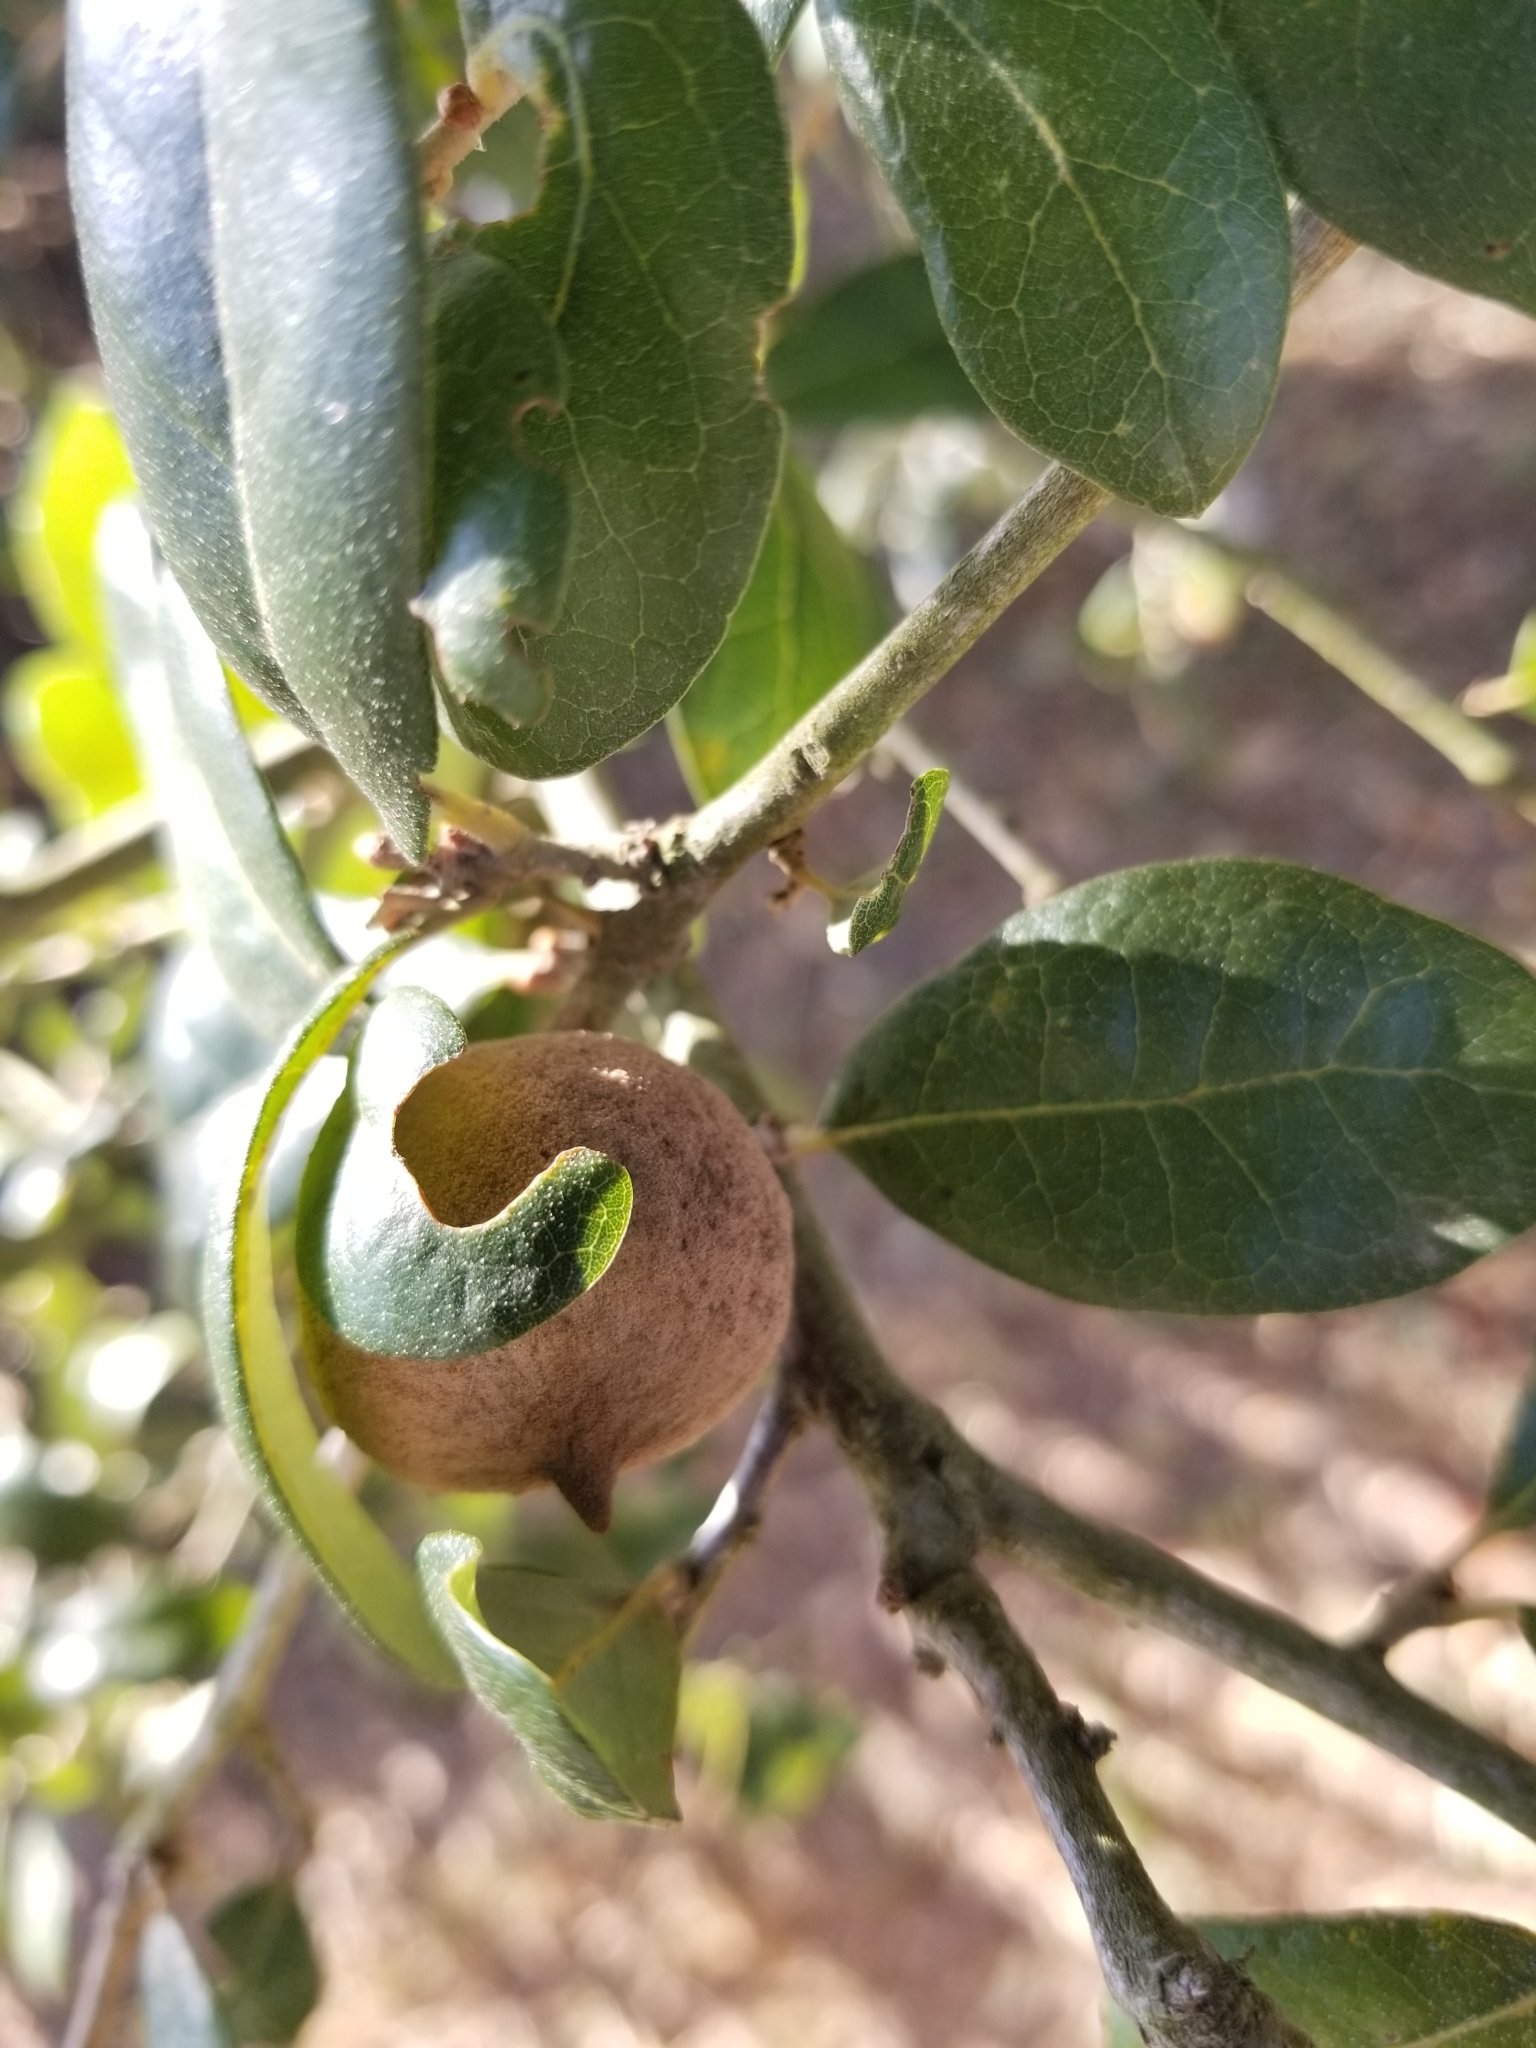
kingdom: Animalia
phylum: Arthropoda
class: Insecta
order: Hymenoptera
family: Cynipidae
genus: Disholcaspis
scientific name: Disholcaspis
